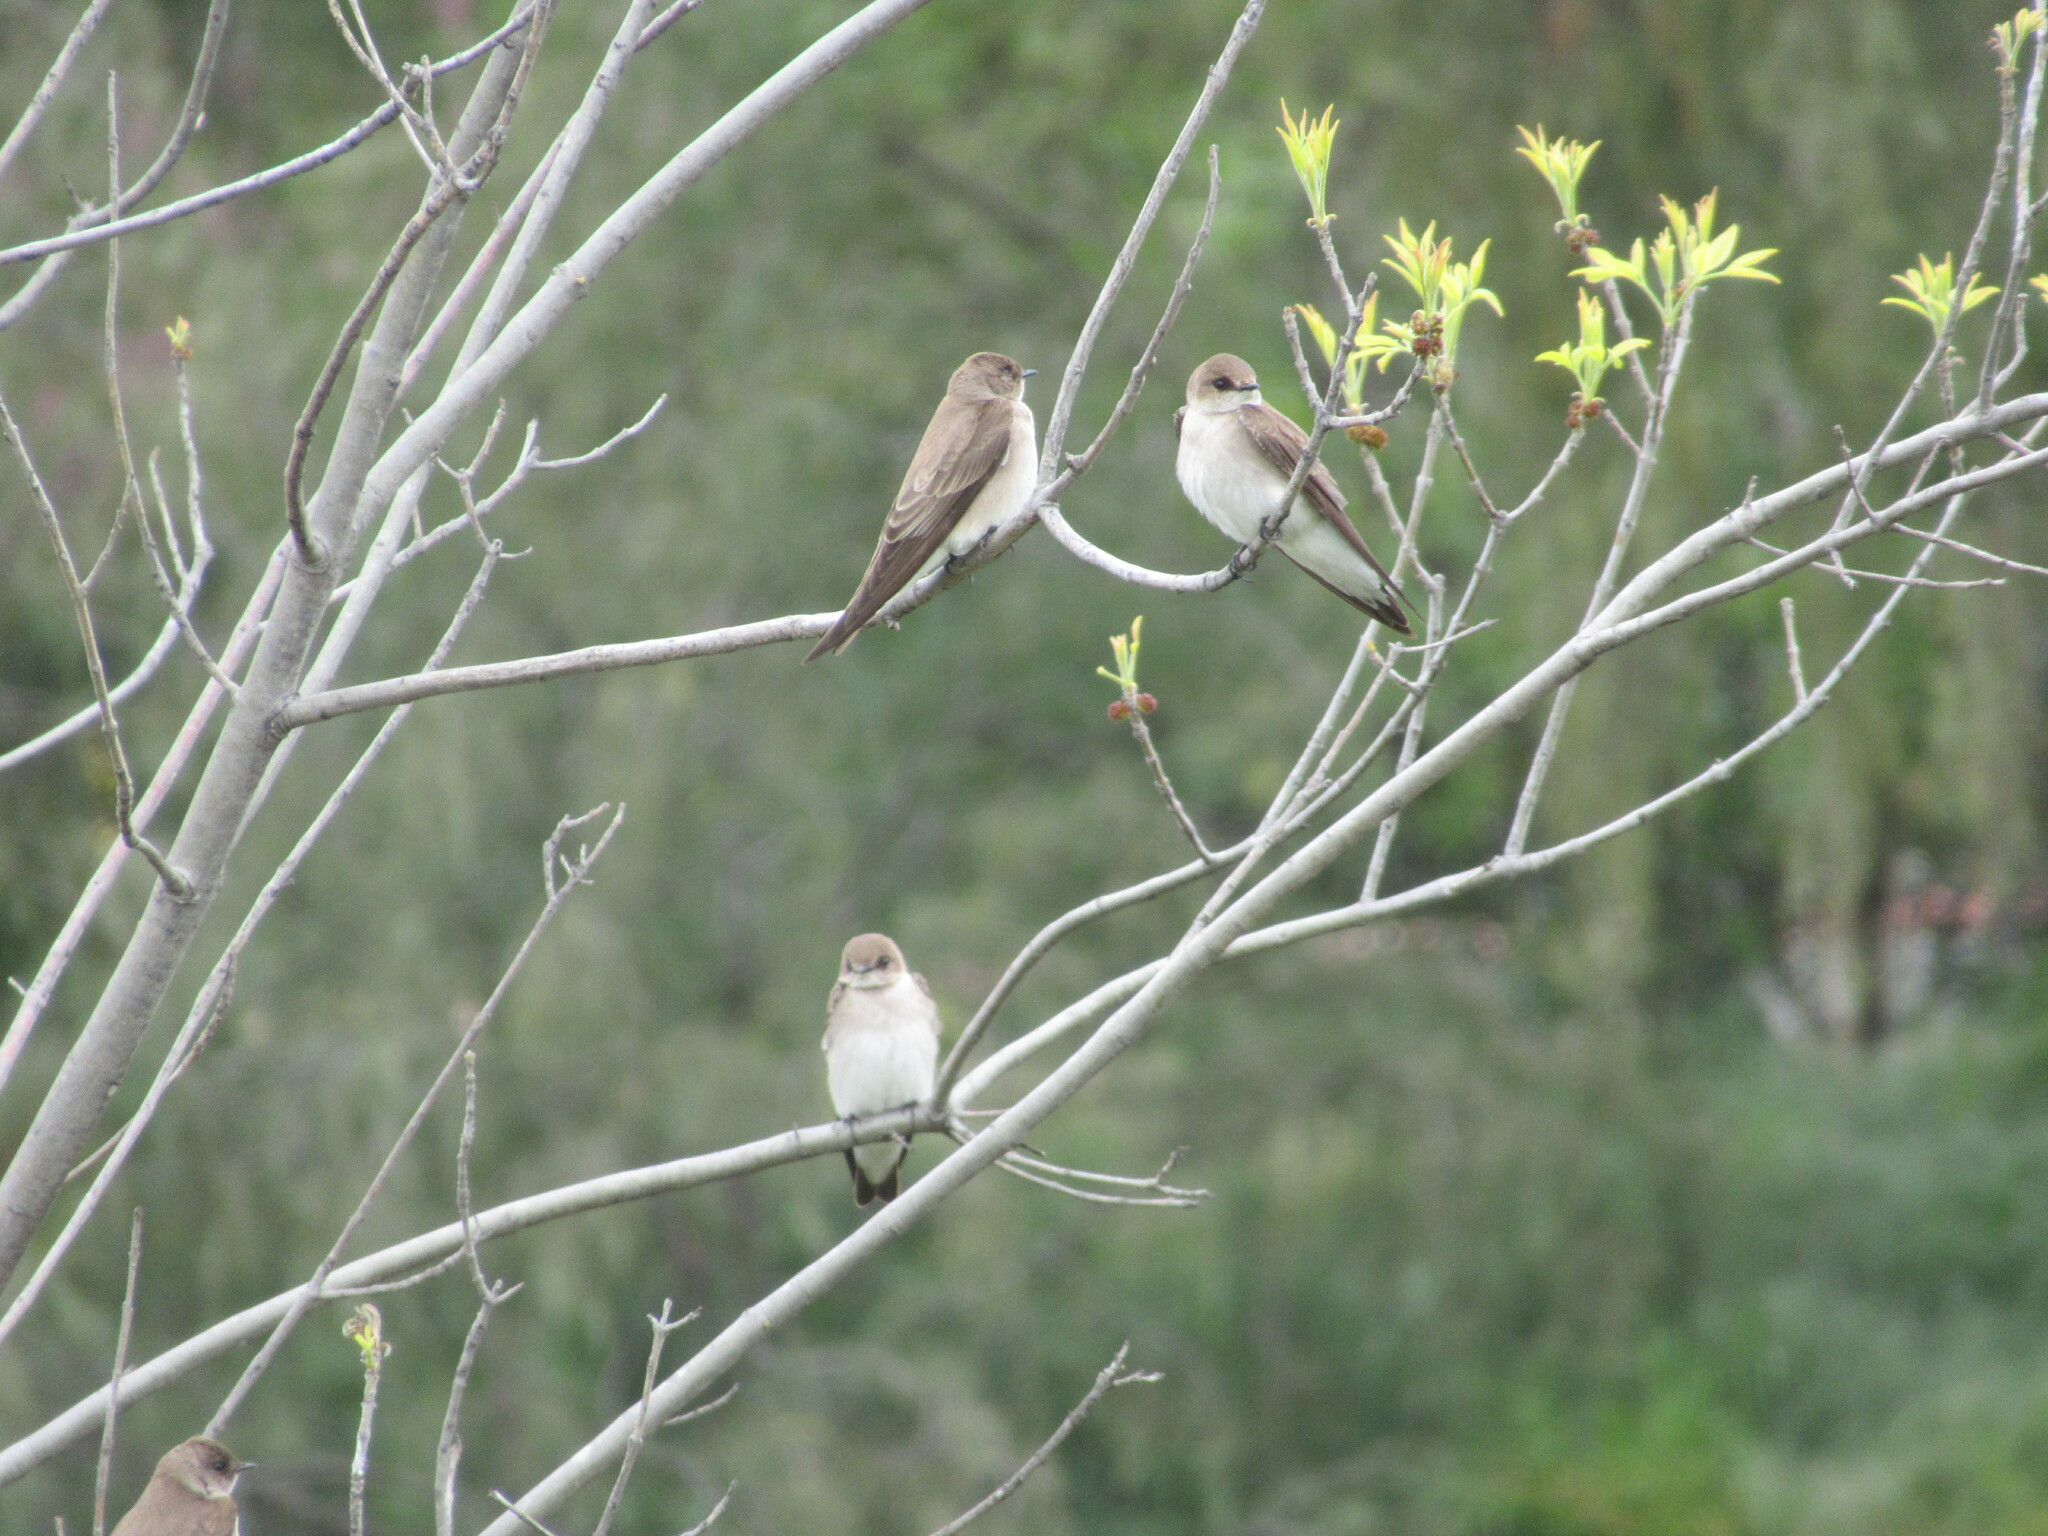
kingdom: Animalia
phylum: Chordata
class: Aves
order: Passeriformes
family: Hirundinidae
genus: Stelgidopteryx
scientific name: Stelgidopteryx serripennis
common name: Northern rough-winged swallow
